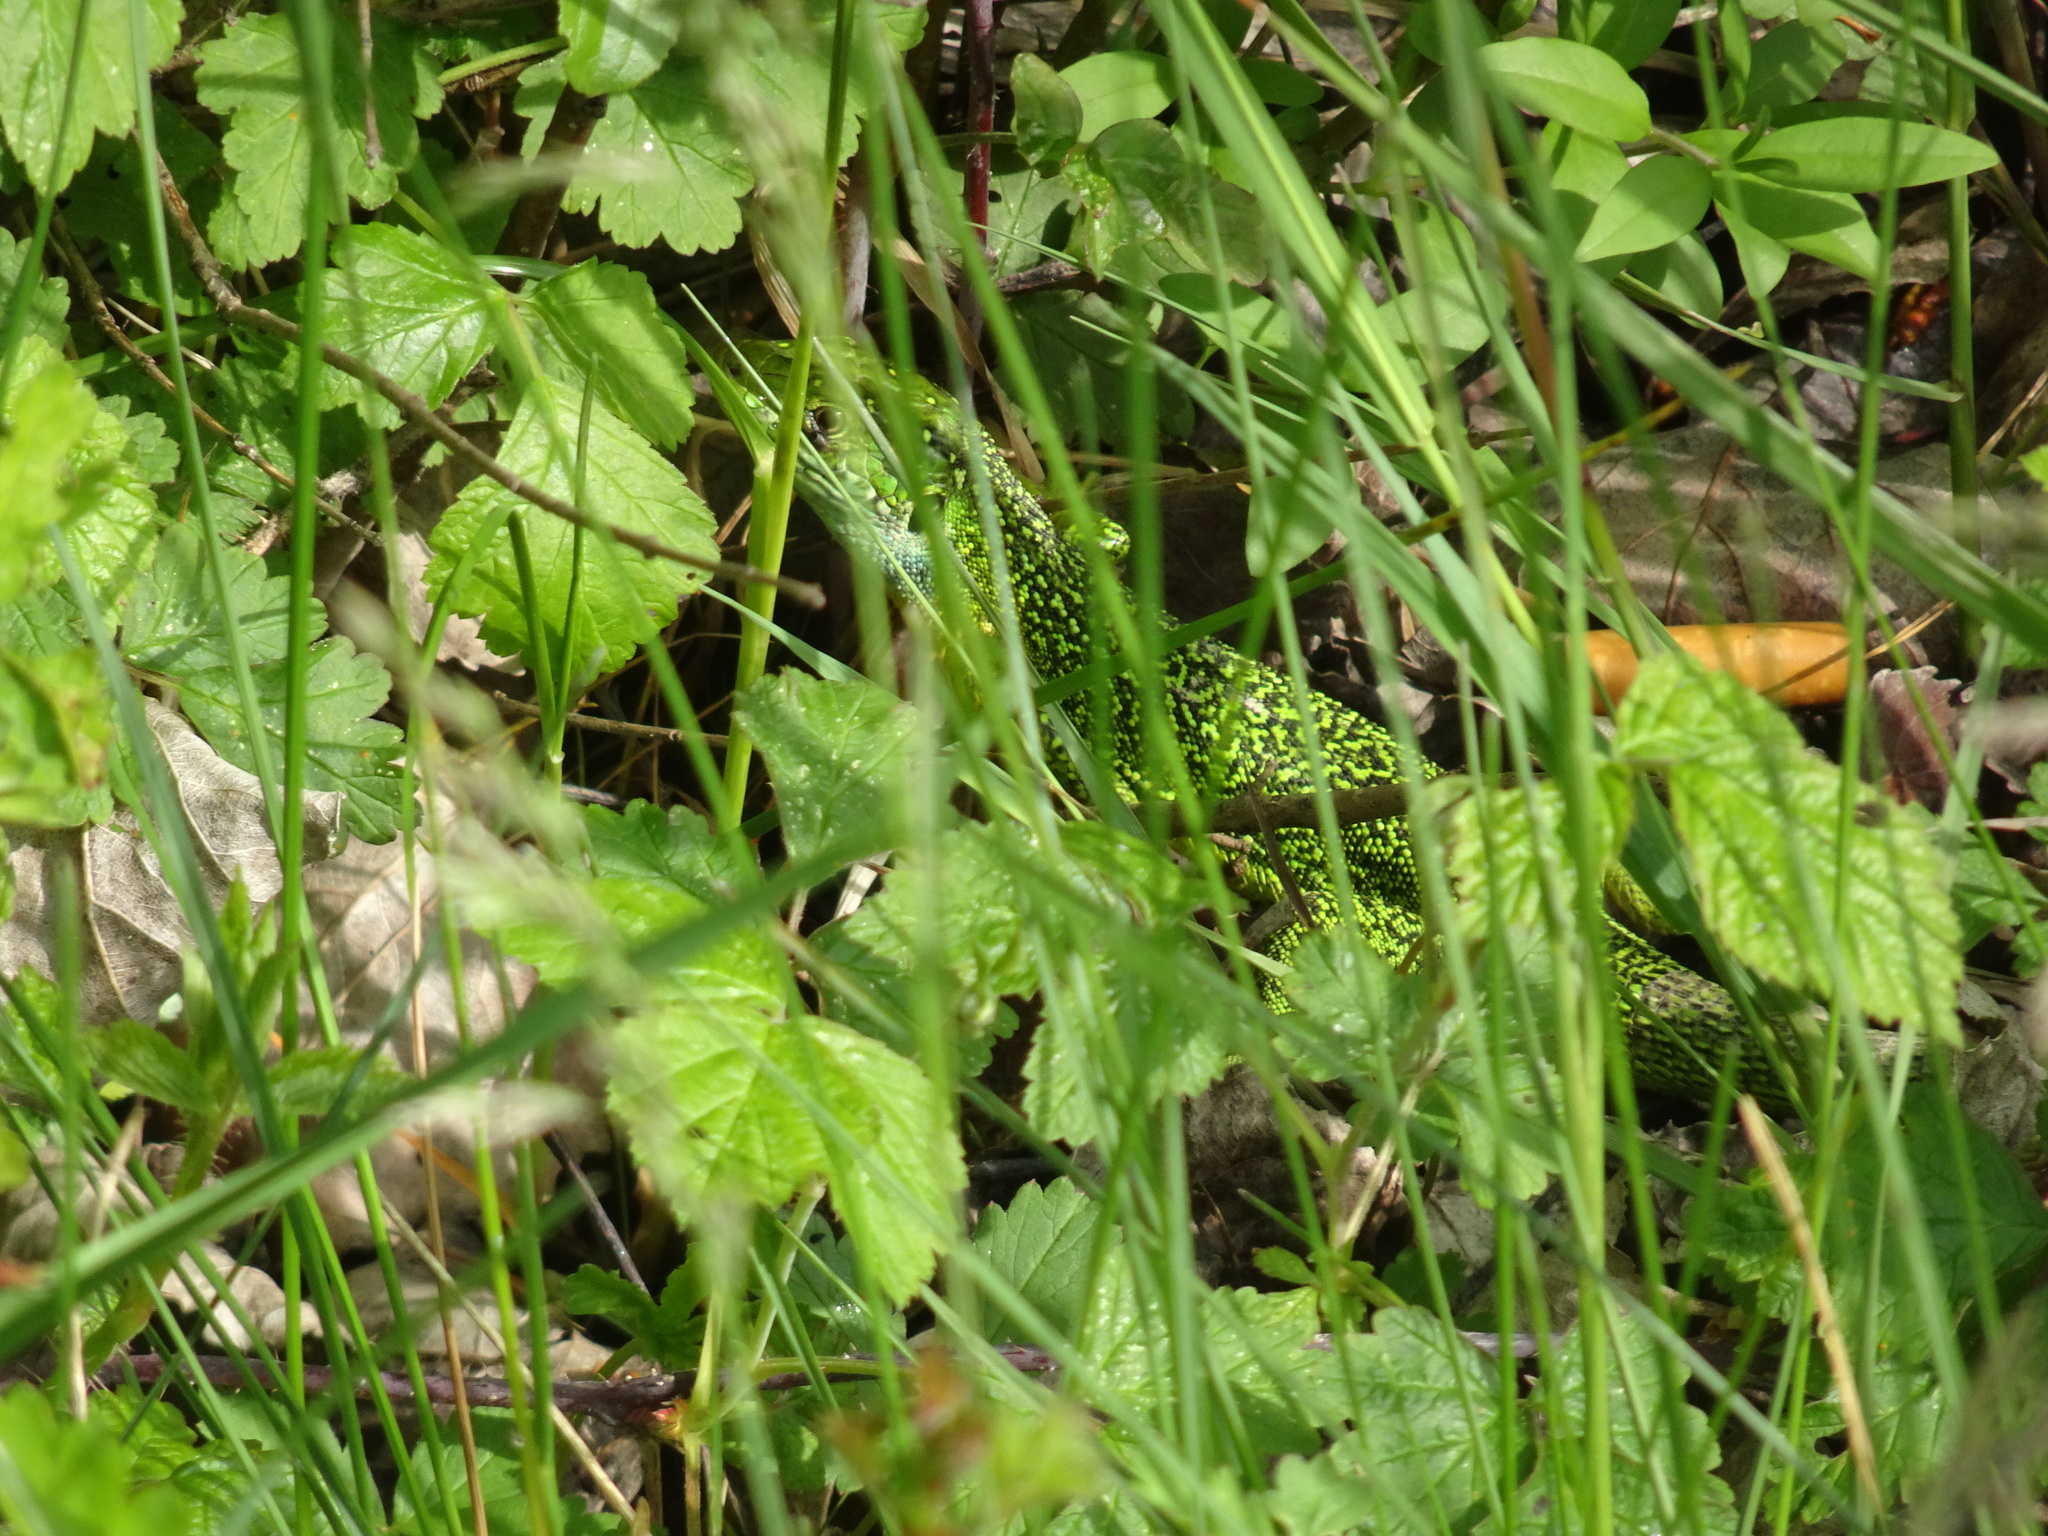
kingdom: Animalia
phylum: Chordata
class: Squamata
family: Lacertidae
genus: Lacerta
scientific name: Lacerta bilineata
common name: Western green lizard
